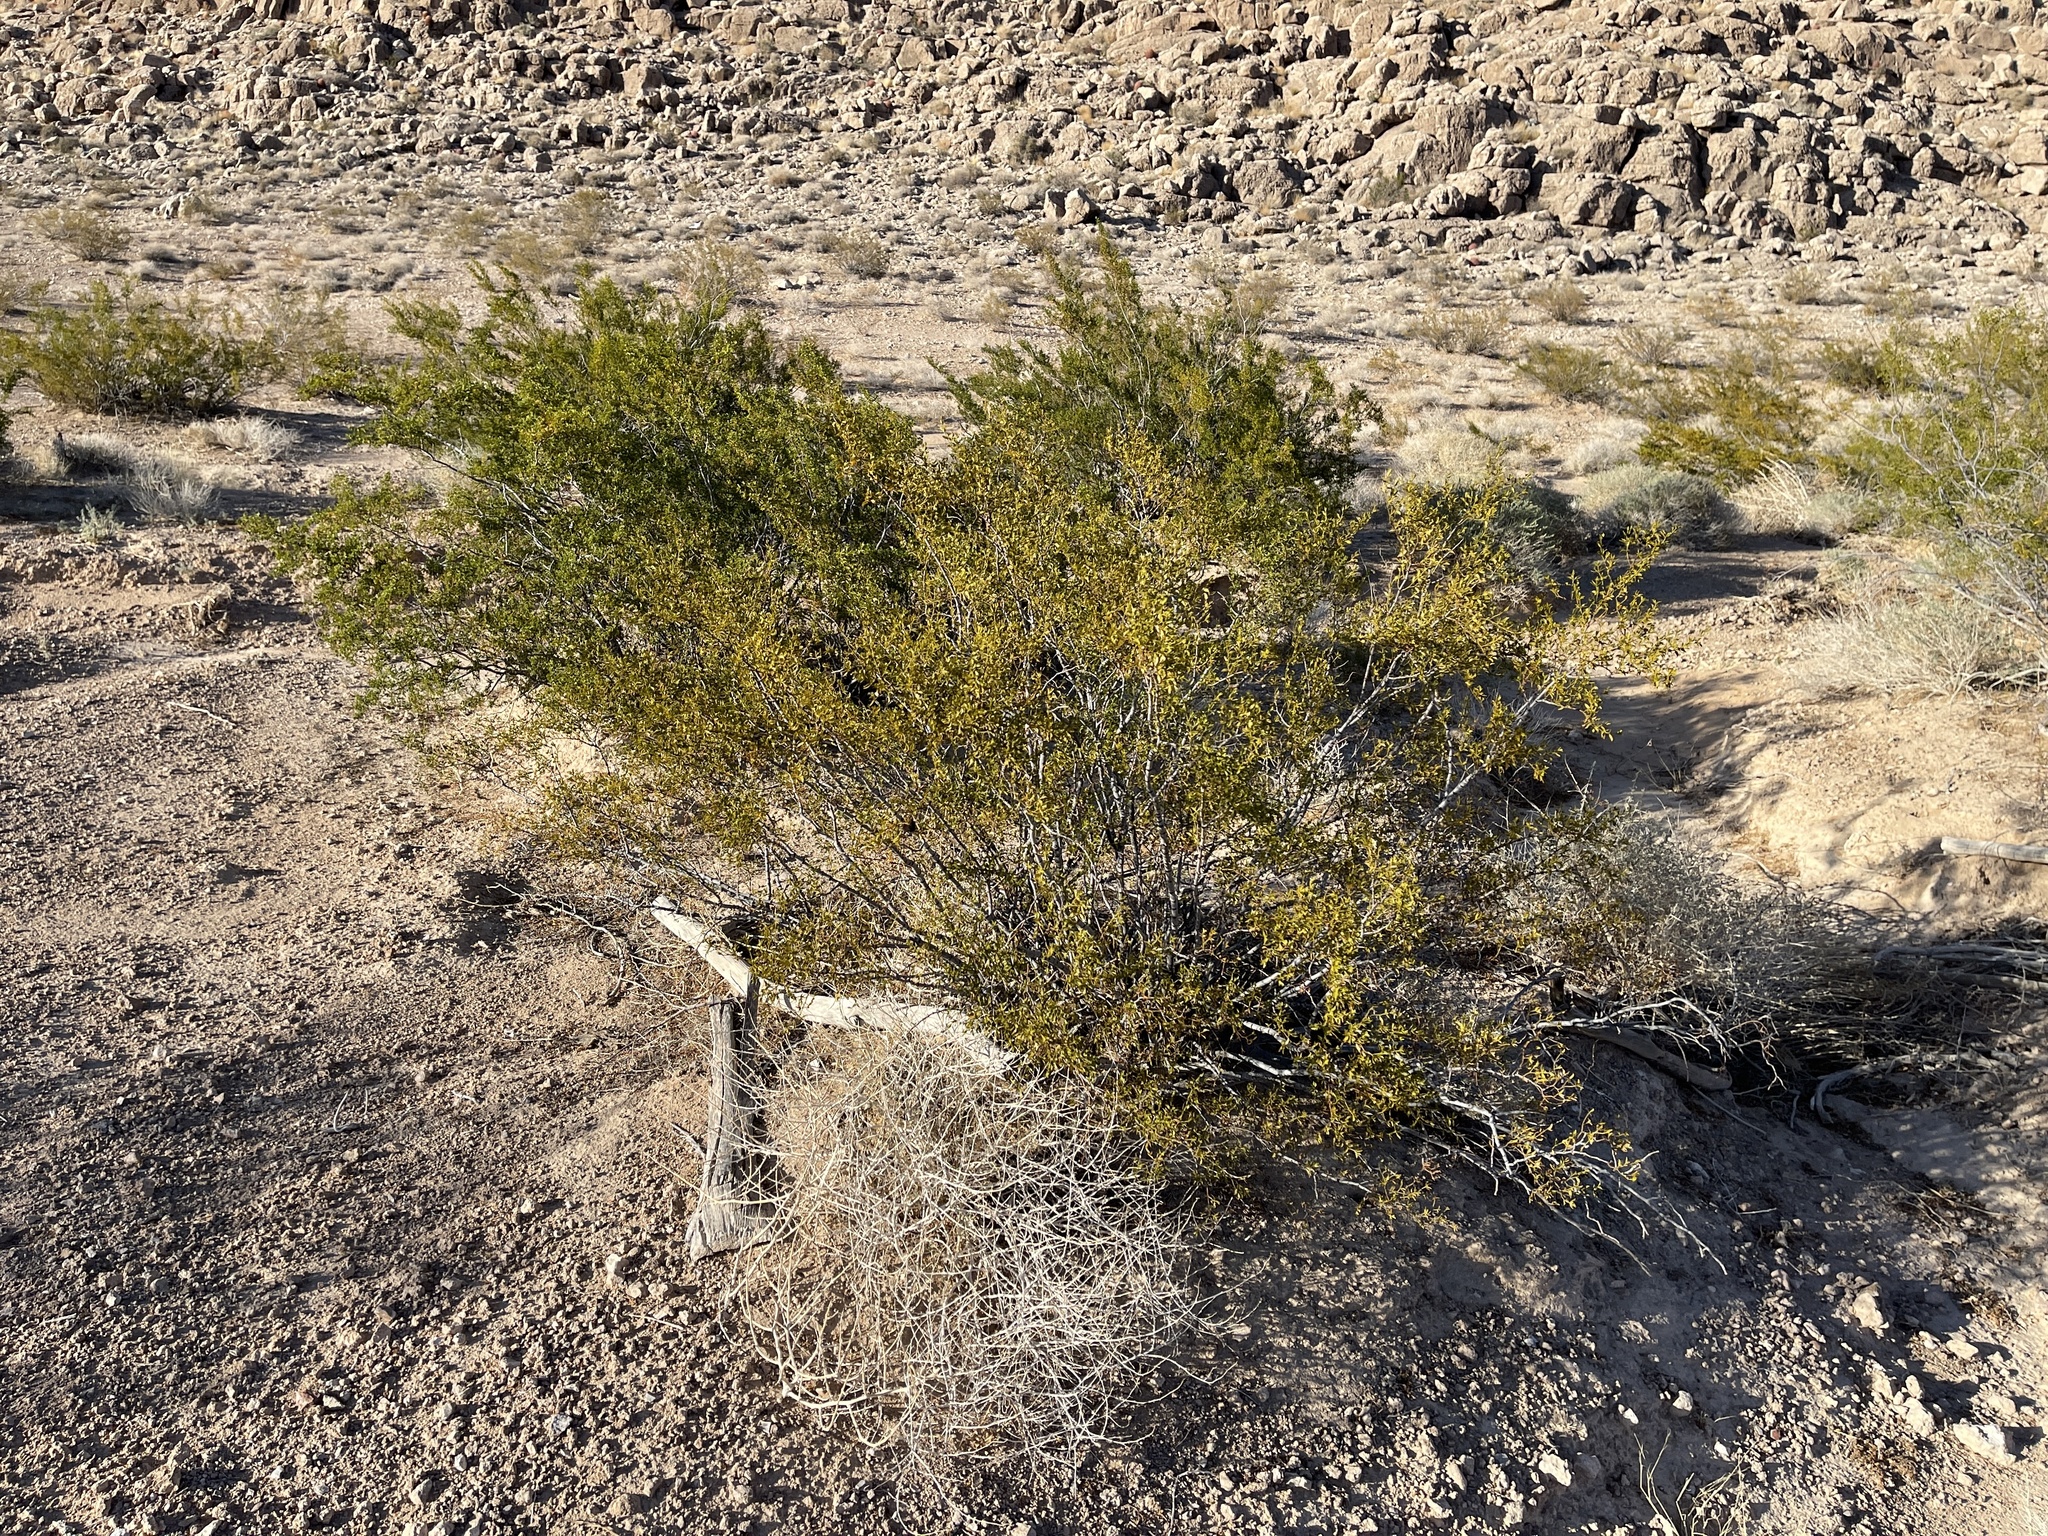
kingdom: Plantae
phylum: Tracheophyta
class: Magnoliopsida
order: Zygophyllales
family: Zygophyllaceae
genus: Larrea
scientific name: Larrea tridentata
